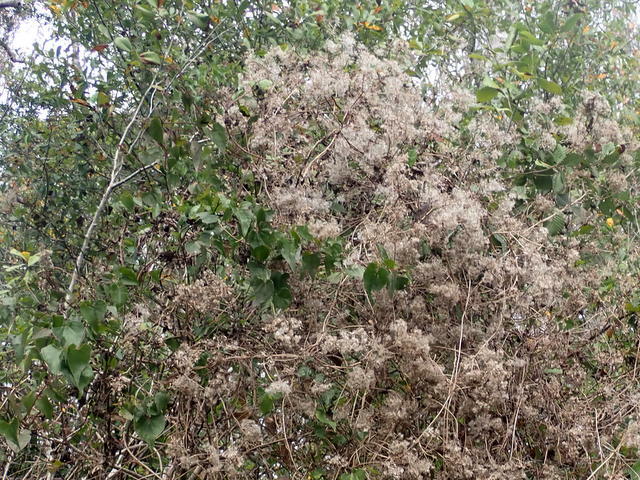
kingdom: Plantae
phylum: Tracheophyta
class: Magnoliopsida
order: Asterales
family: Asteraceae
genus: Mikania
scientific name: Mikania scandens
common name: Climbing hempvine
